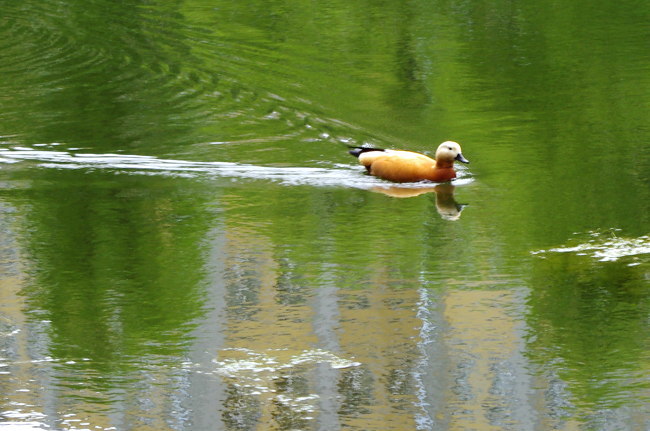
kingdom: Animalia
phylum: Chordata
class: Aves
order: Anseriformes
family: Anatidae
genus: Tadorna
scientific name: Tadorna ferruginea
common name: Ruddy shelduck
